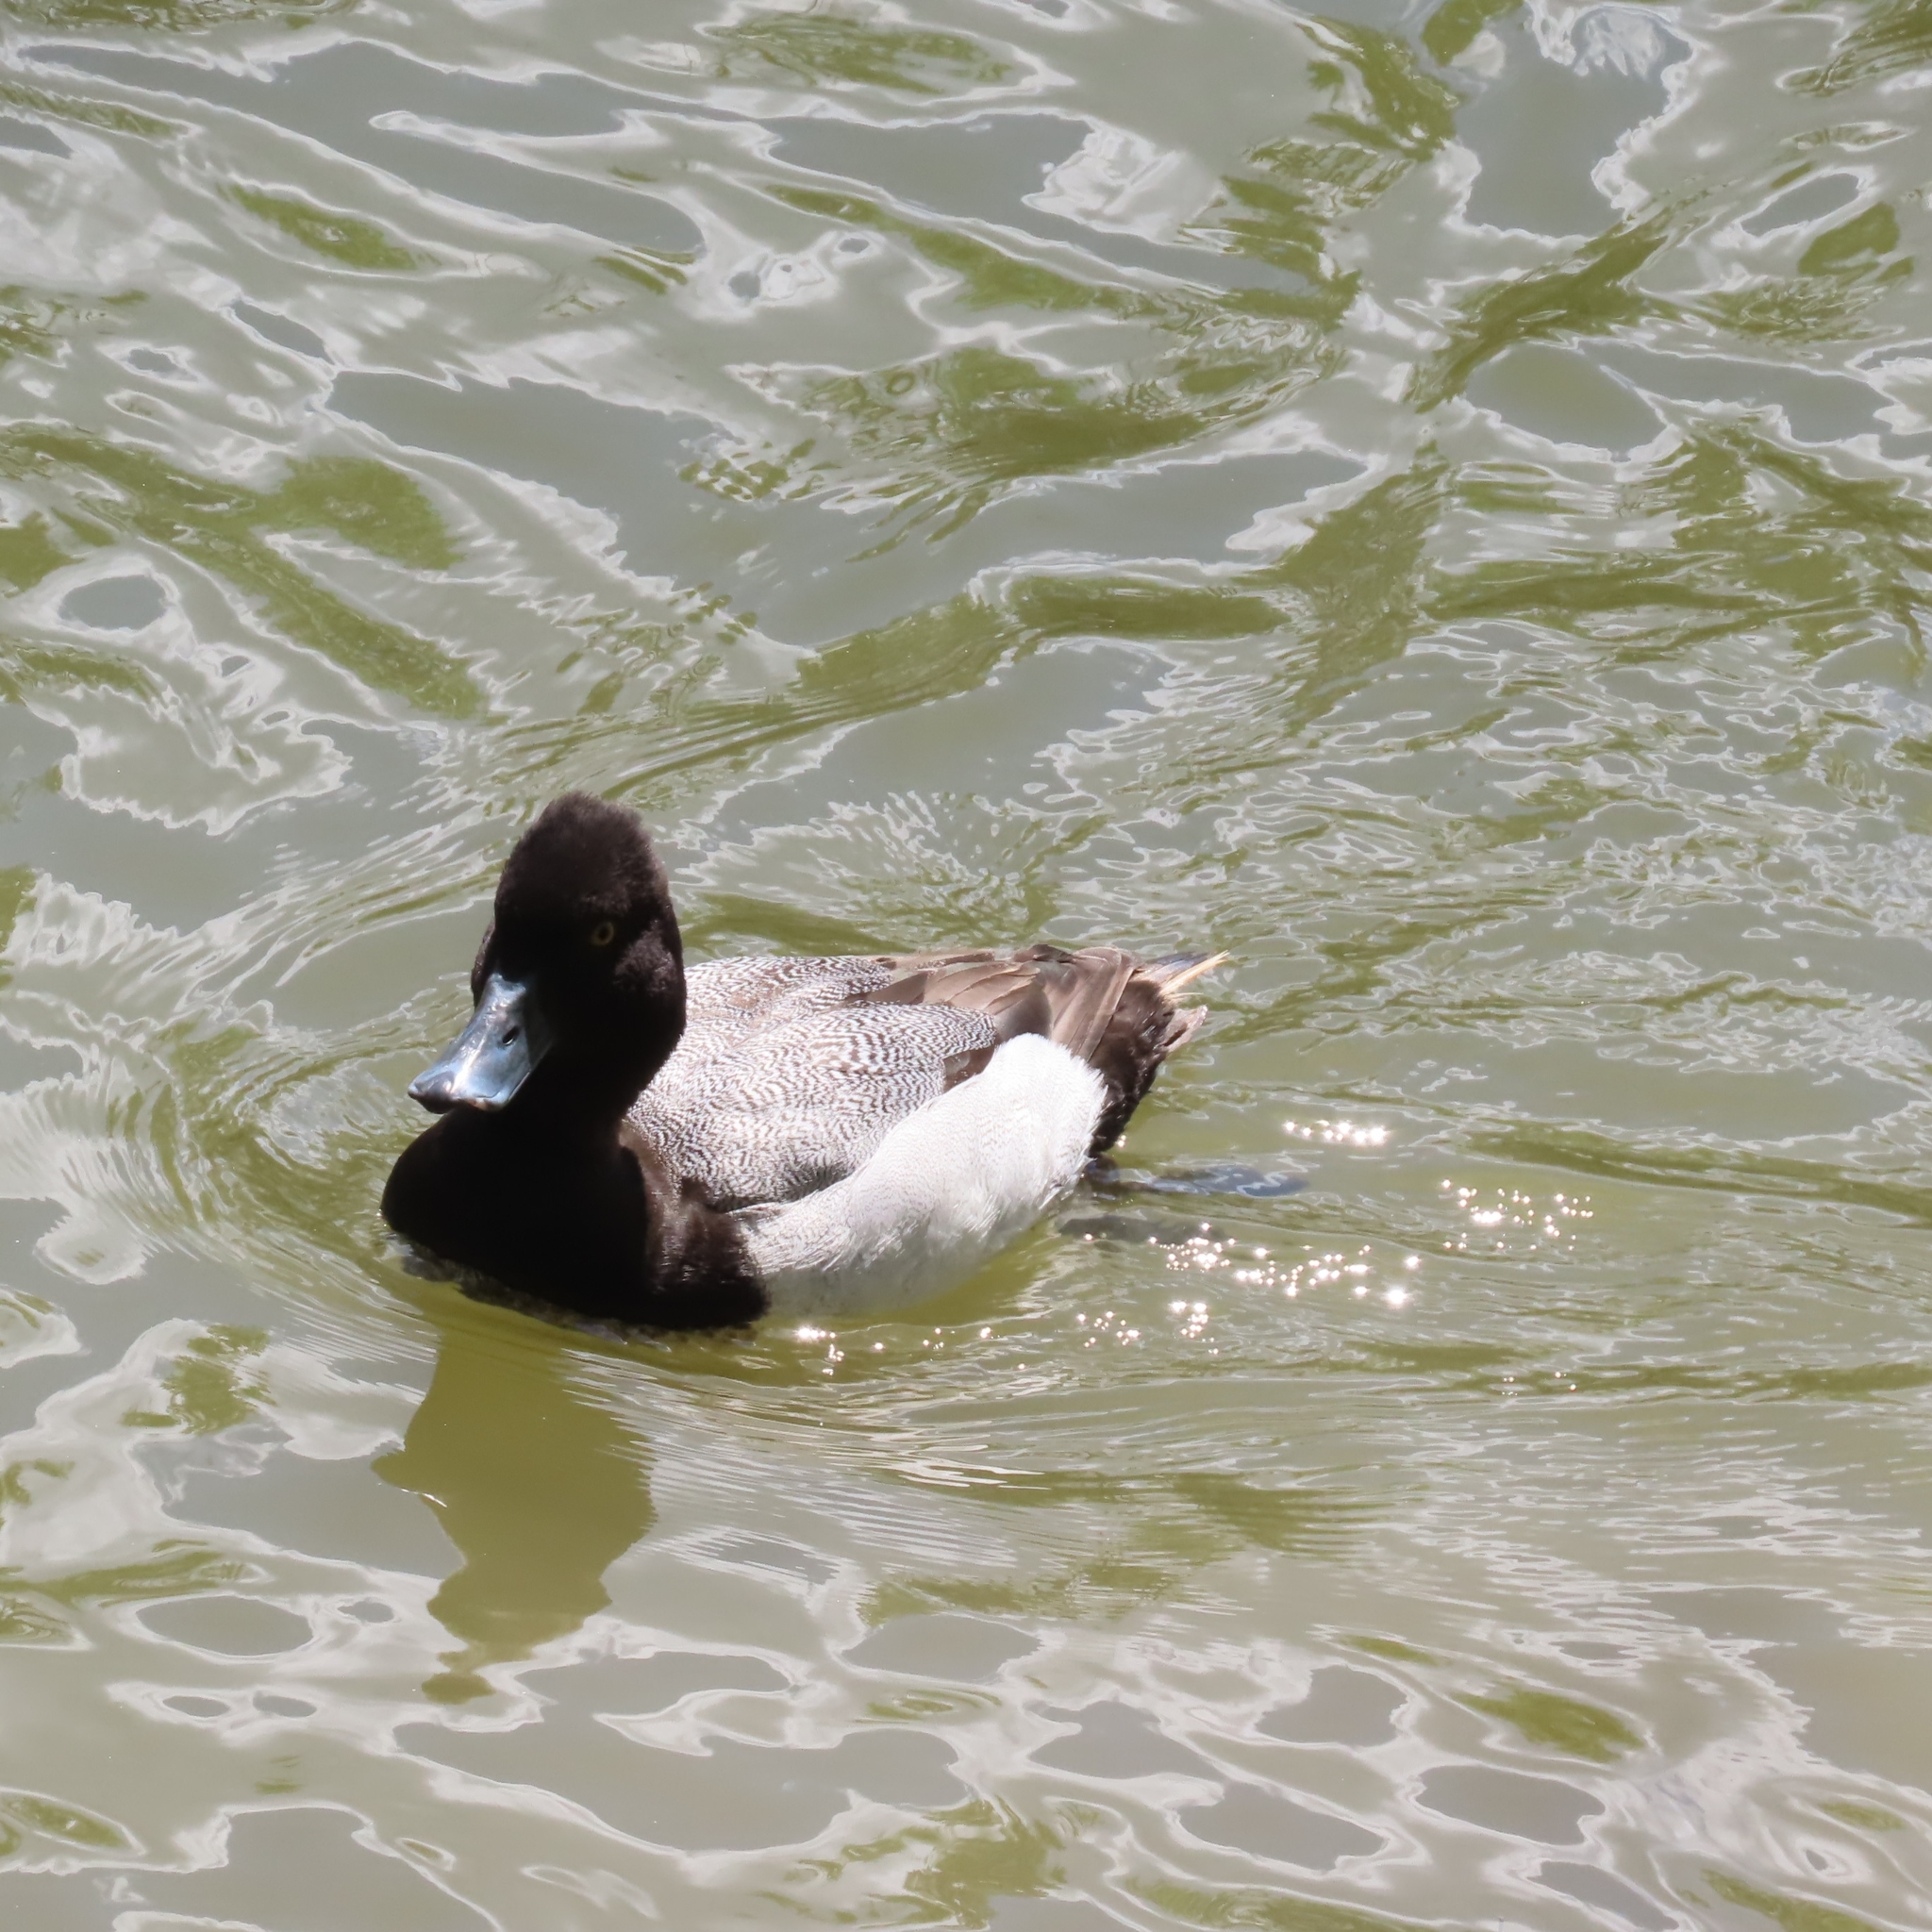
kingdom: Animalia
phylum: Chordata
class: Aves
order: Anseriformes
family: Anatidae
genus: Aythya
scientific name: Aythya affinis
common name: Lesser scaup
